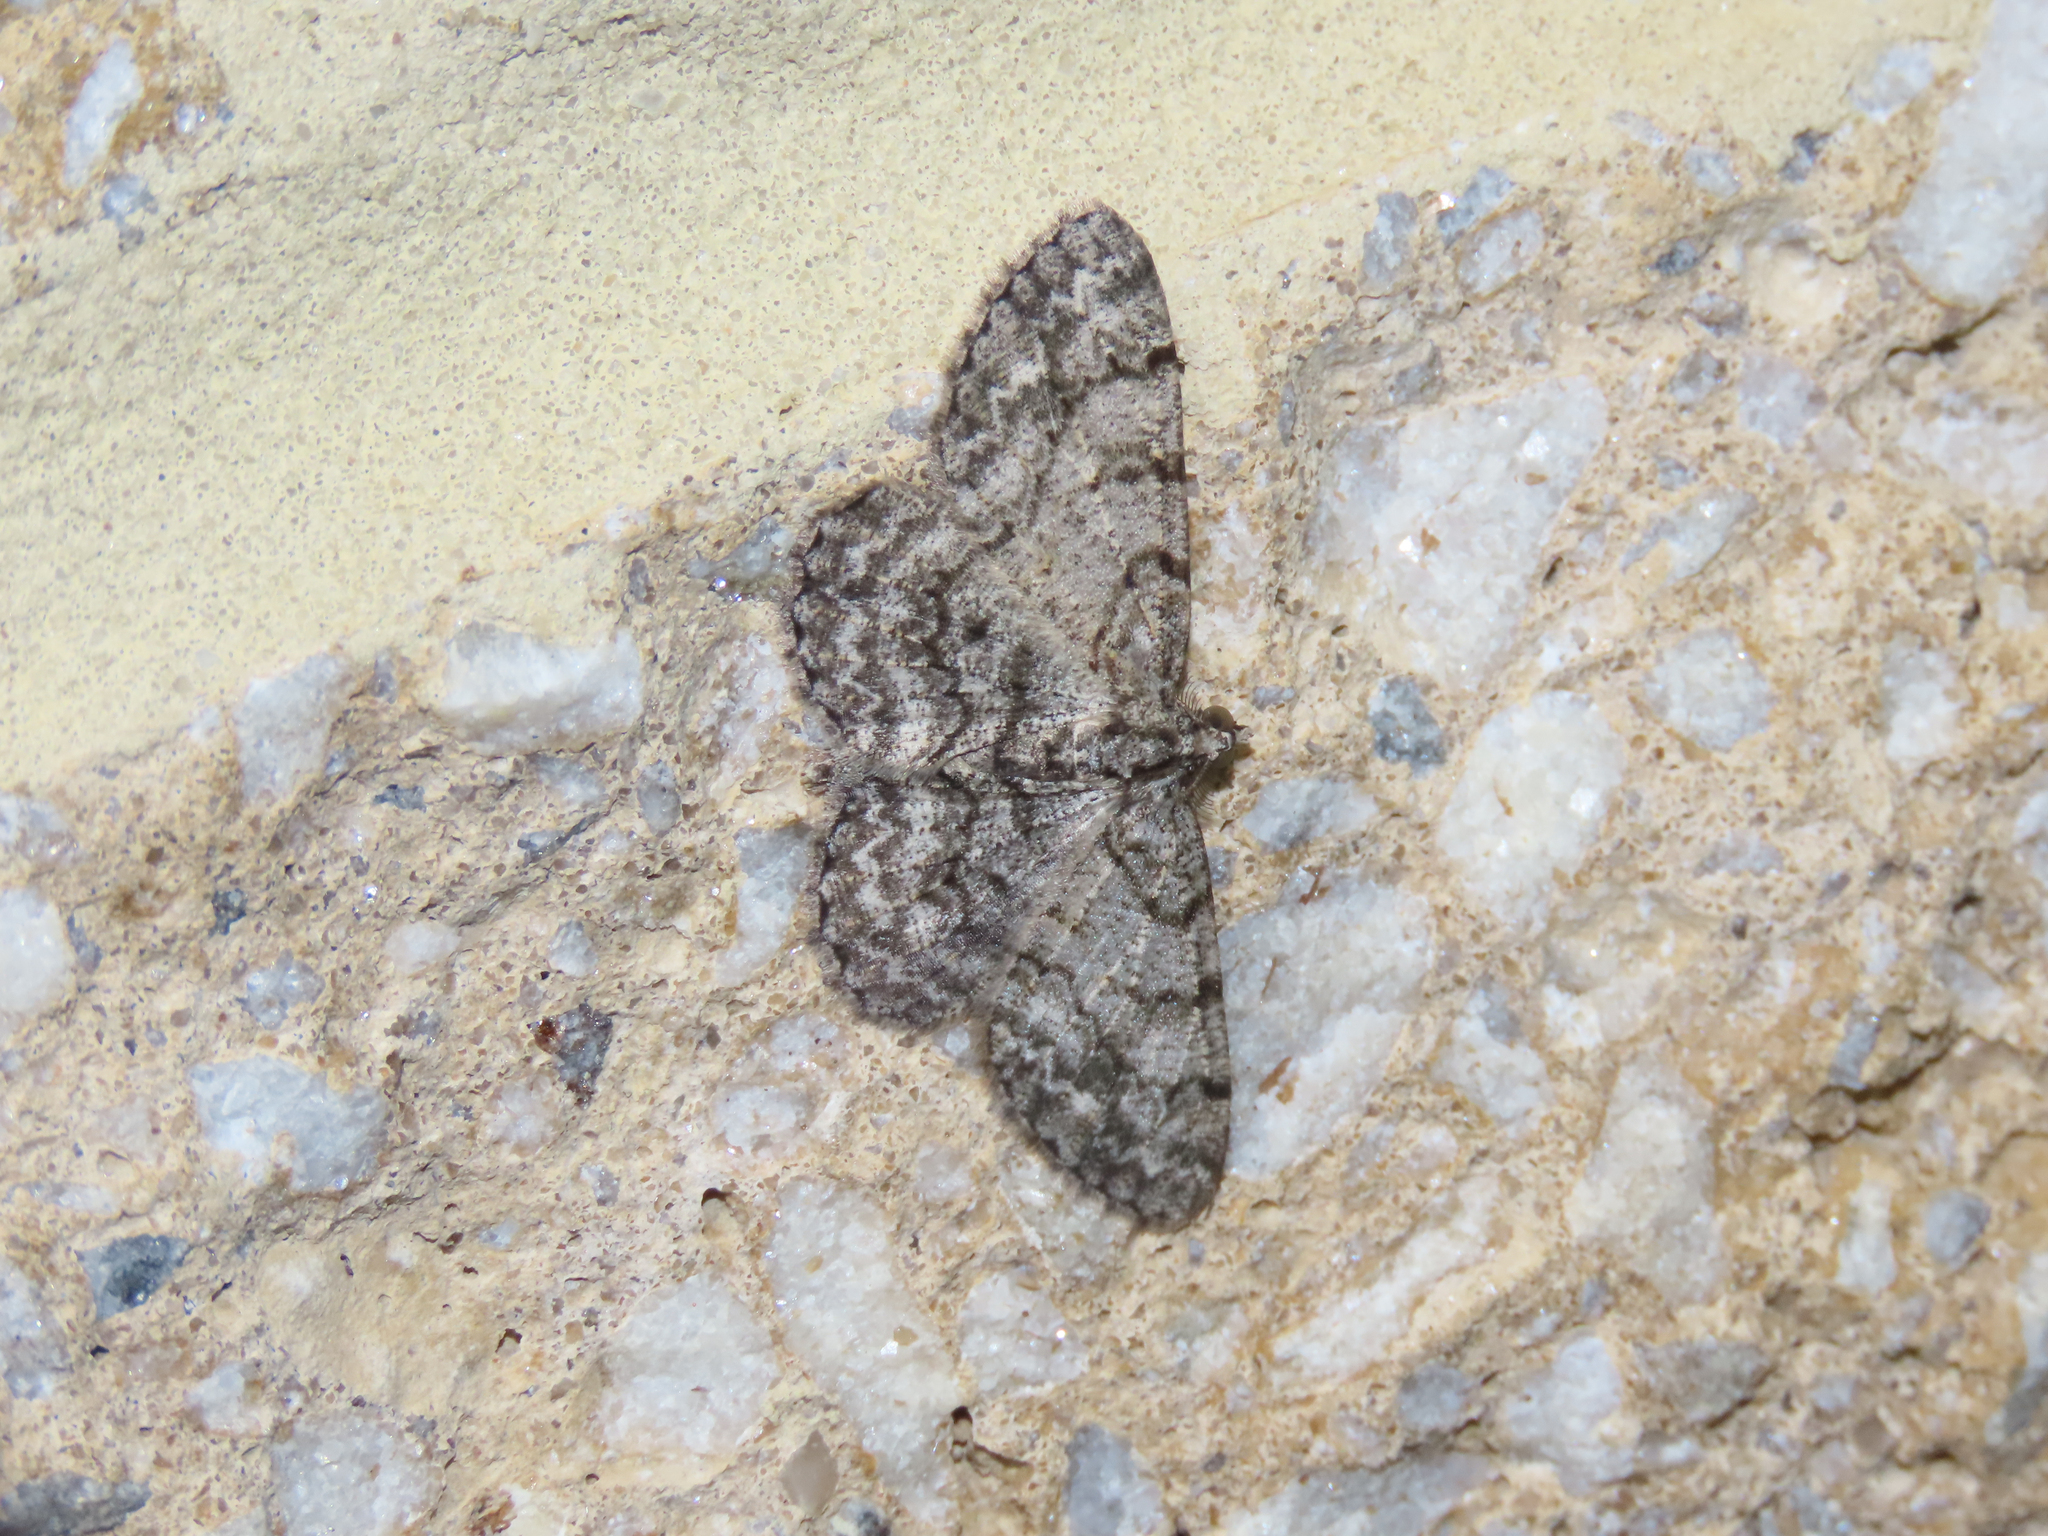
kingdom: Animalia
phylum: Arthropoda
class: Insecta
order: Lepidoptera
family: Geometridae
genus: Protoboarmia
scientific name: Protoboarmia porcelaria
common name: Porcelain gray
